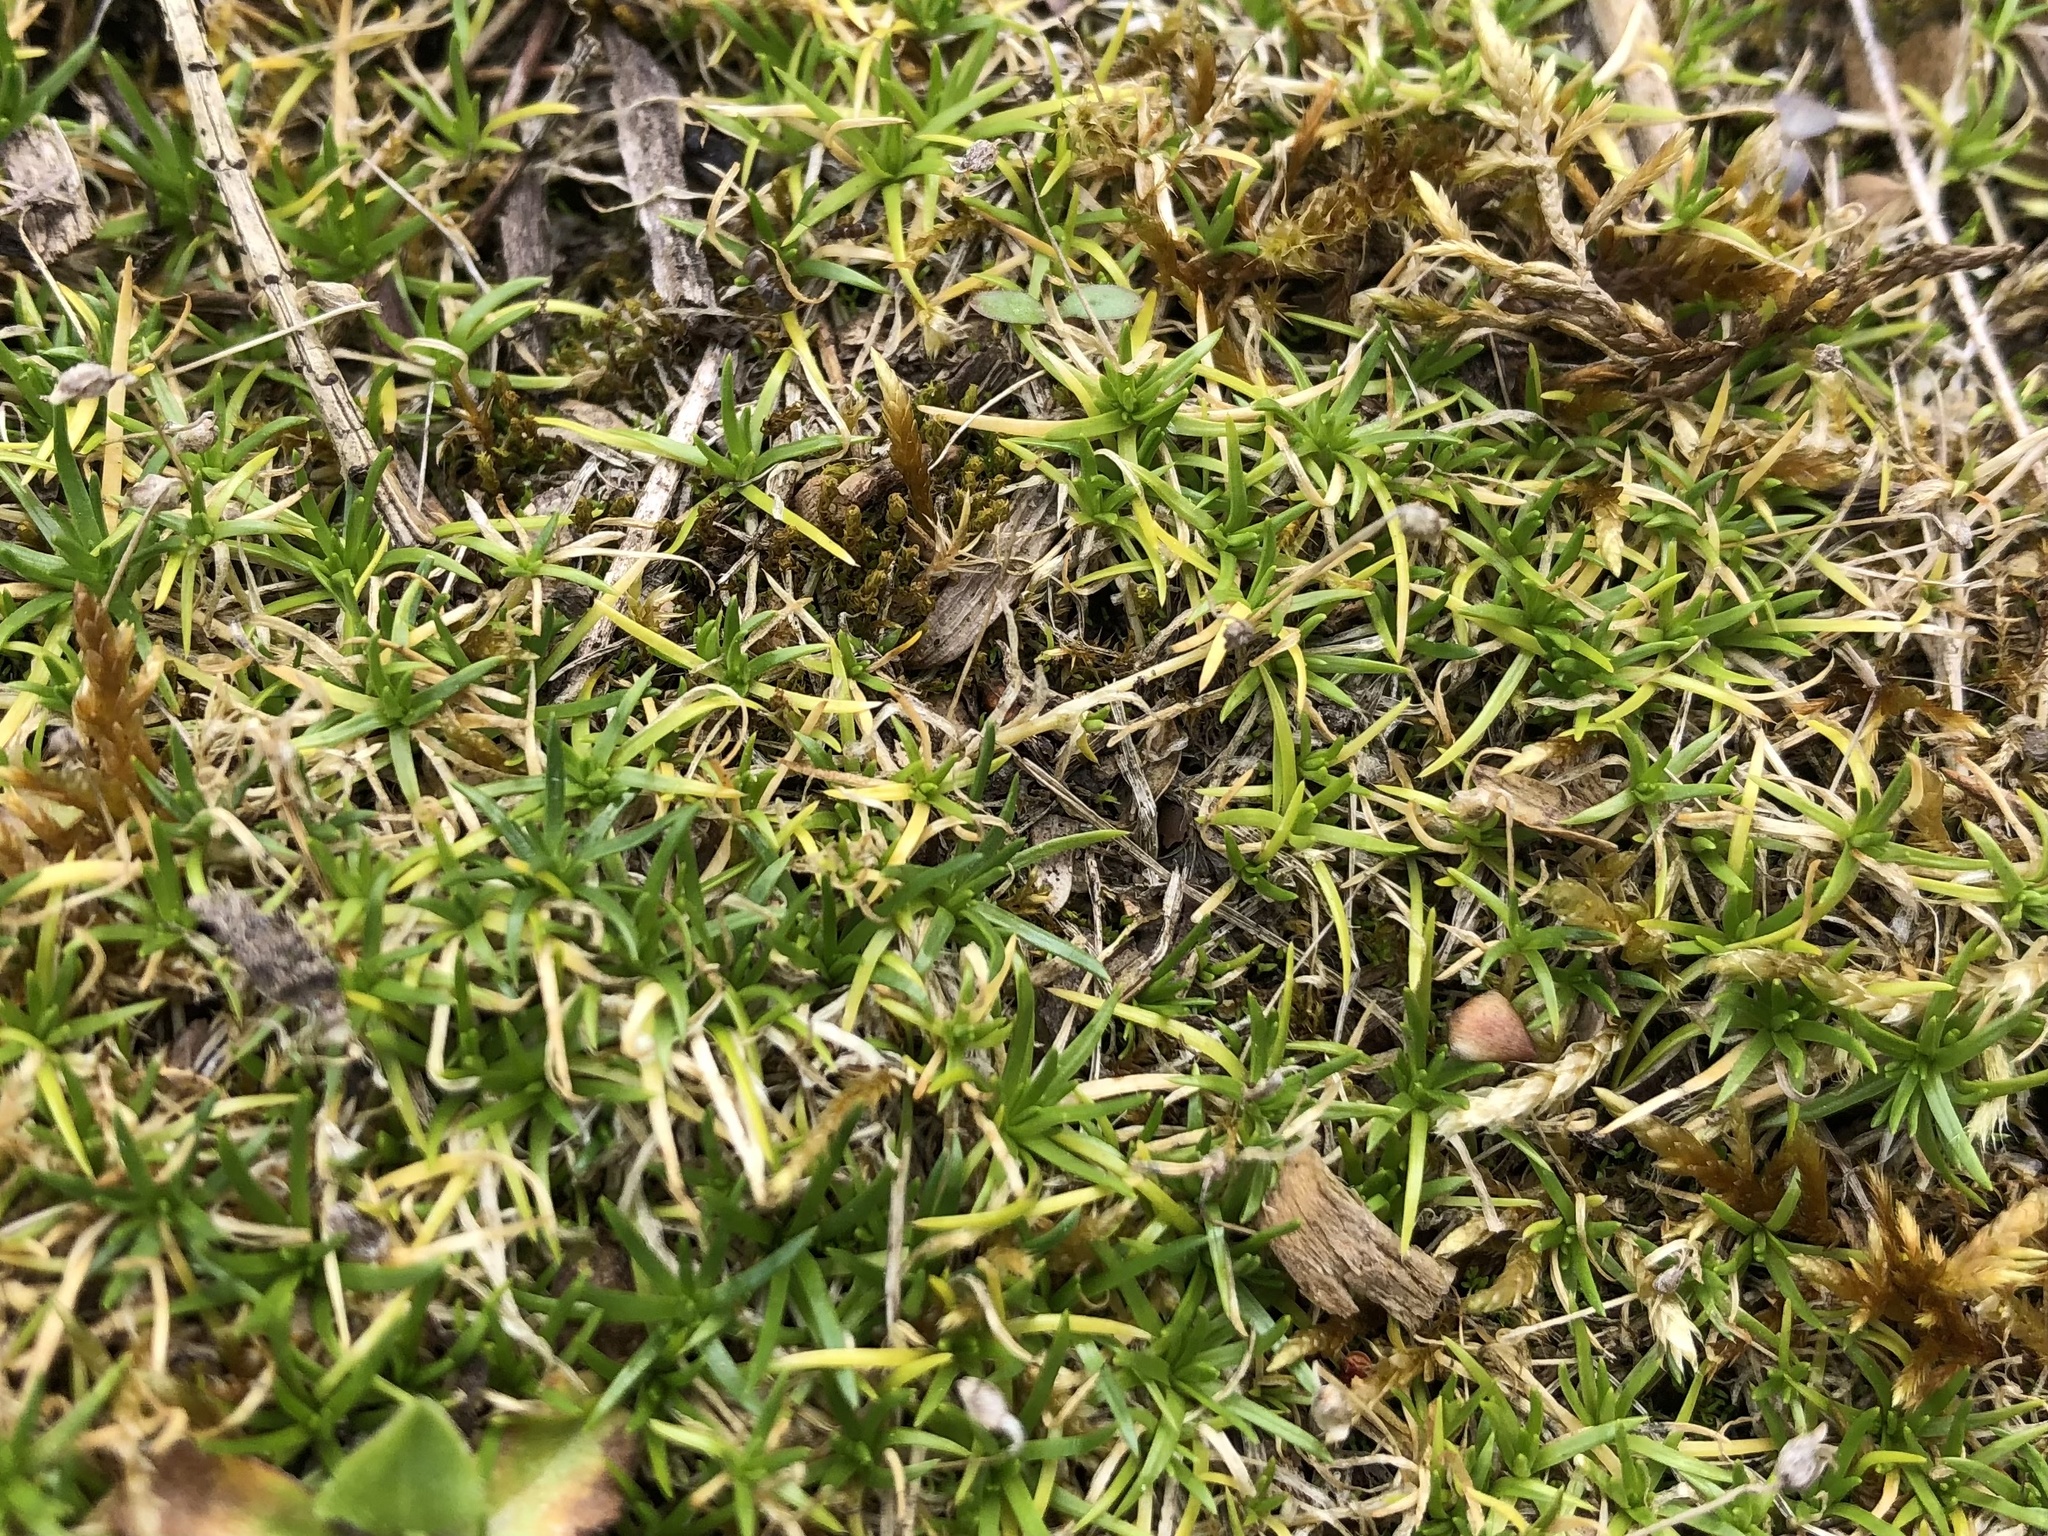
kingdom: Plantae
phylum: Tracheophyta
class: Magnoliopsida
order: Caryophyllales
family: Caryophyllaceae
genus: Sagina
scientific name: Sagina procumbens
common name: Procumbent pearlwort
